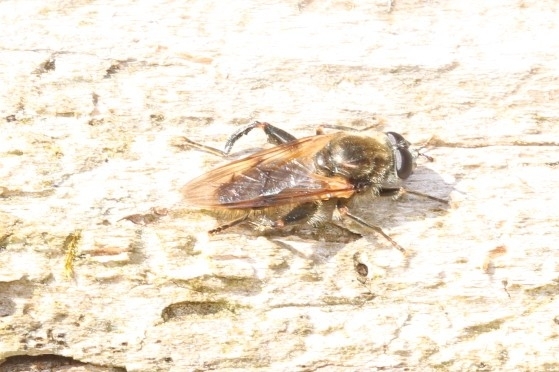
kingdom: Animalia
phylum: Arthropoda
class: Insecta
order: Diptera
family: Syrphidae
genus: Brachypalpus
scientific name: Brachypalpus oarus
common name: Eastern catkin fly
